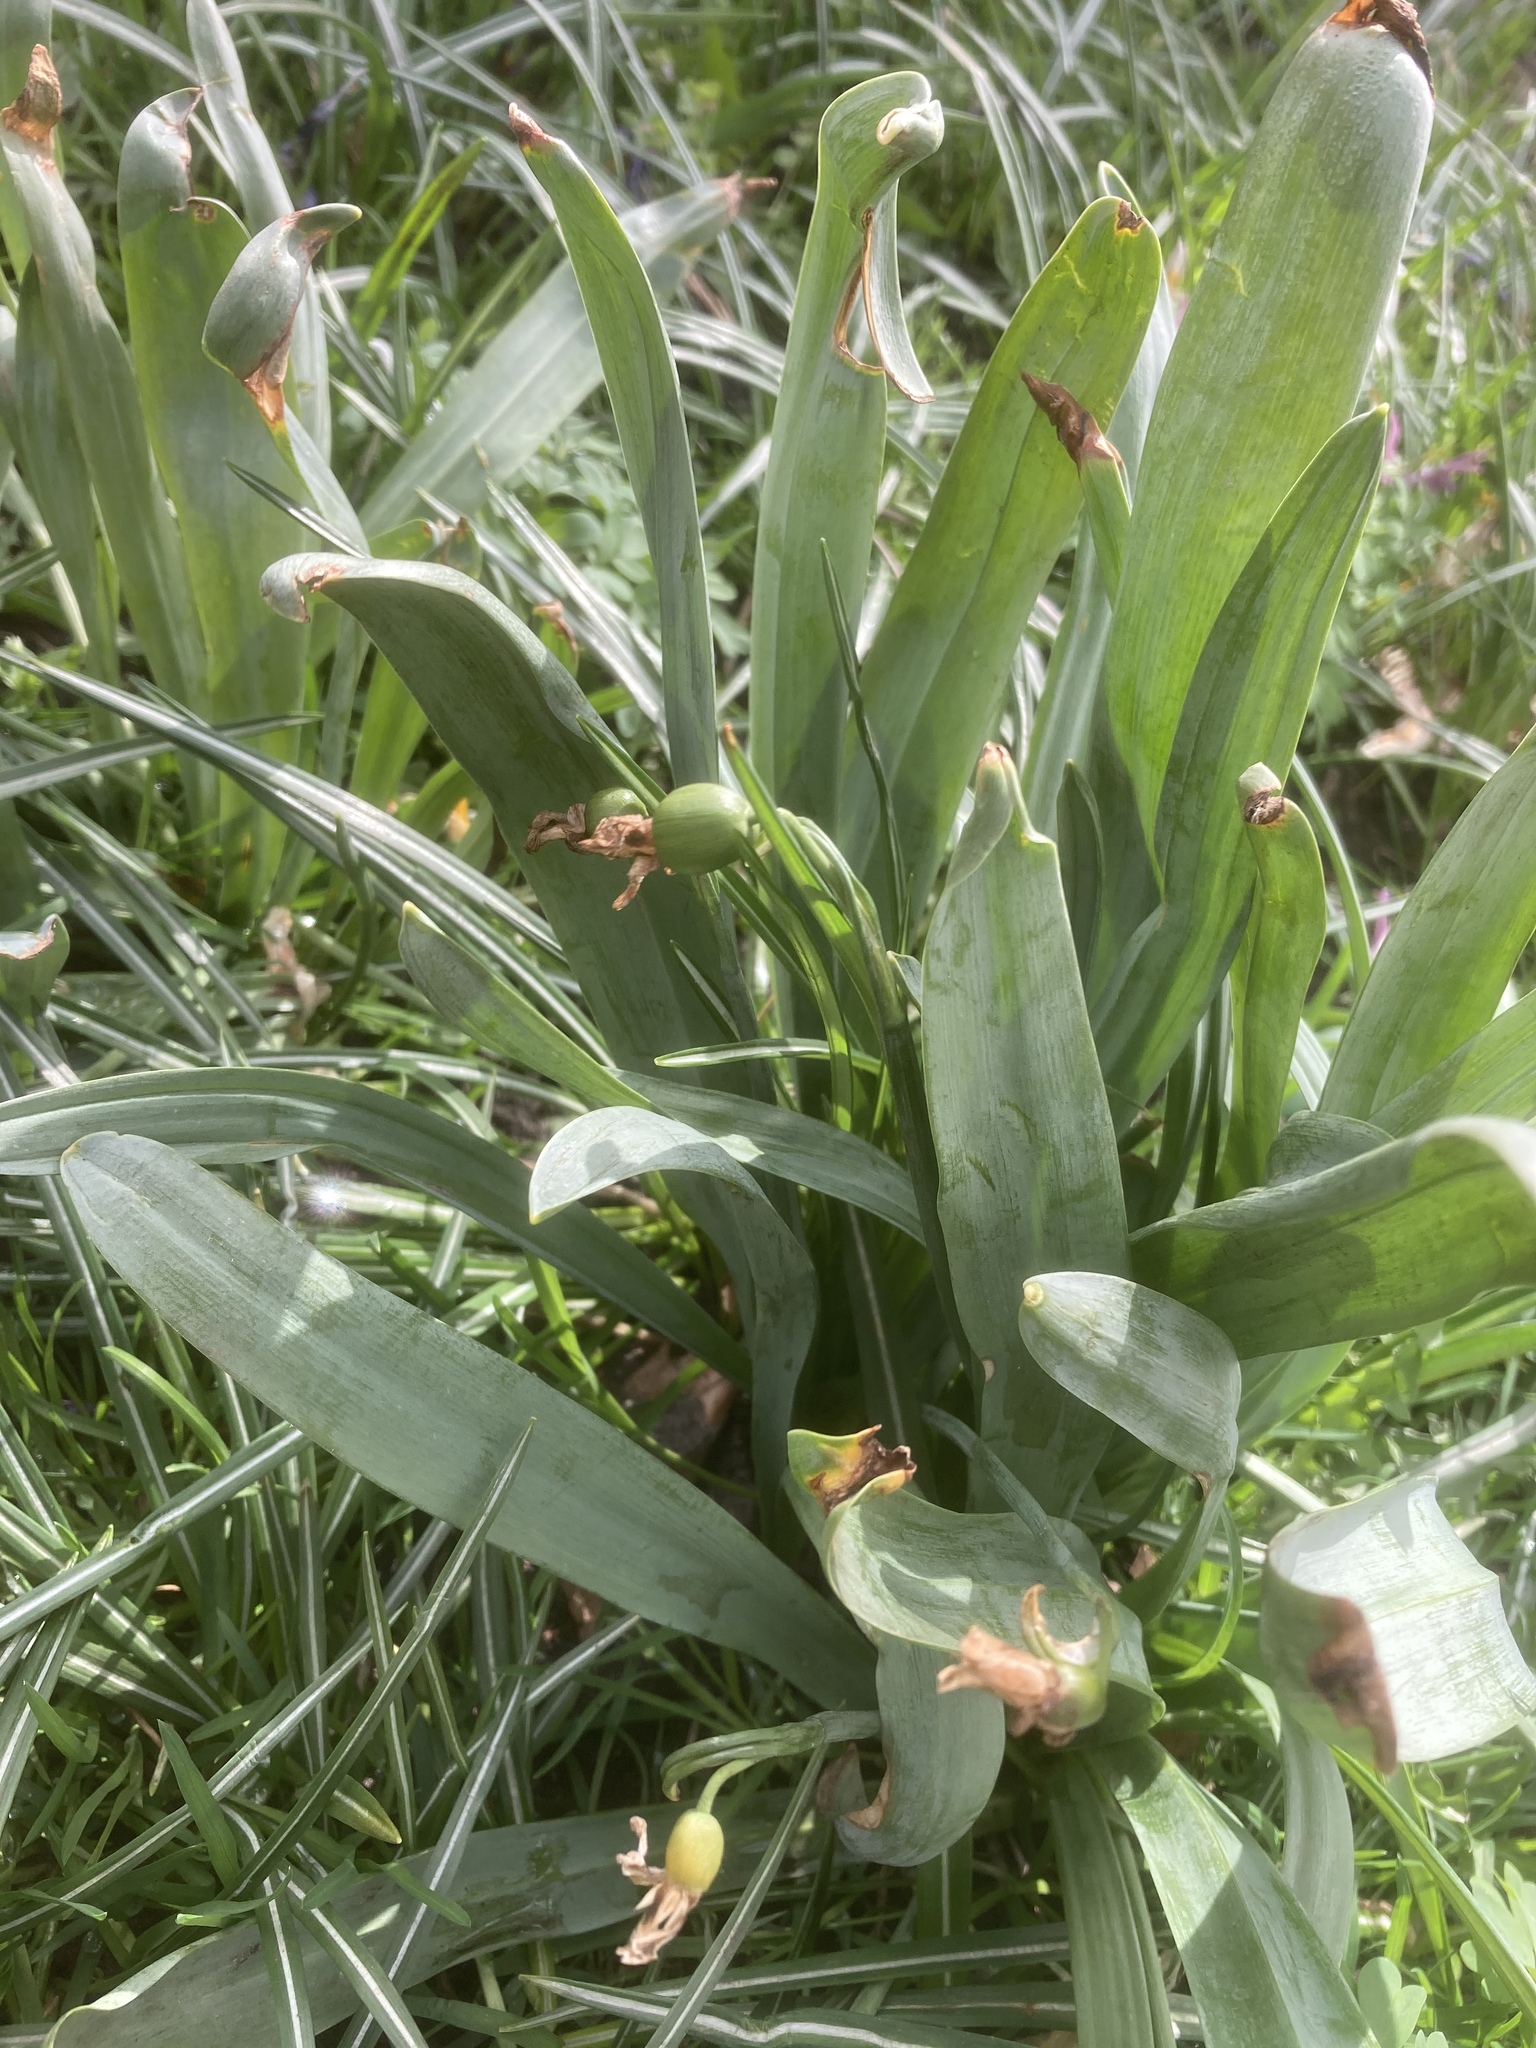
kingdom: Plantae
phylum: Tracheophyta
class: Liliopsida
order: Asparagales
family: Amaryllidaceae
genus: Galanthus
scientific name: Galanthus elwesii
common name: Greater snowdrop
